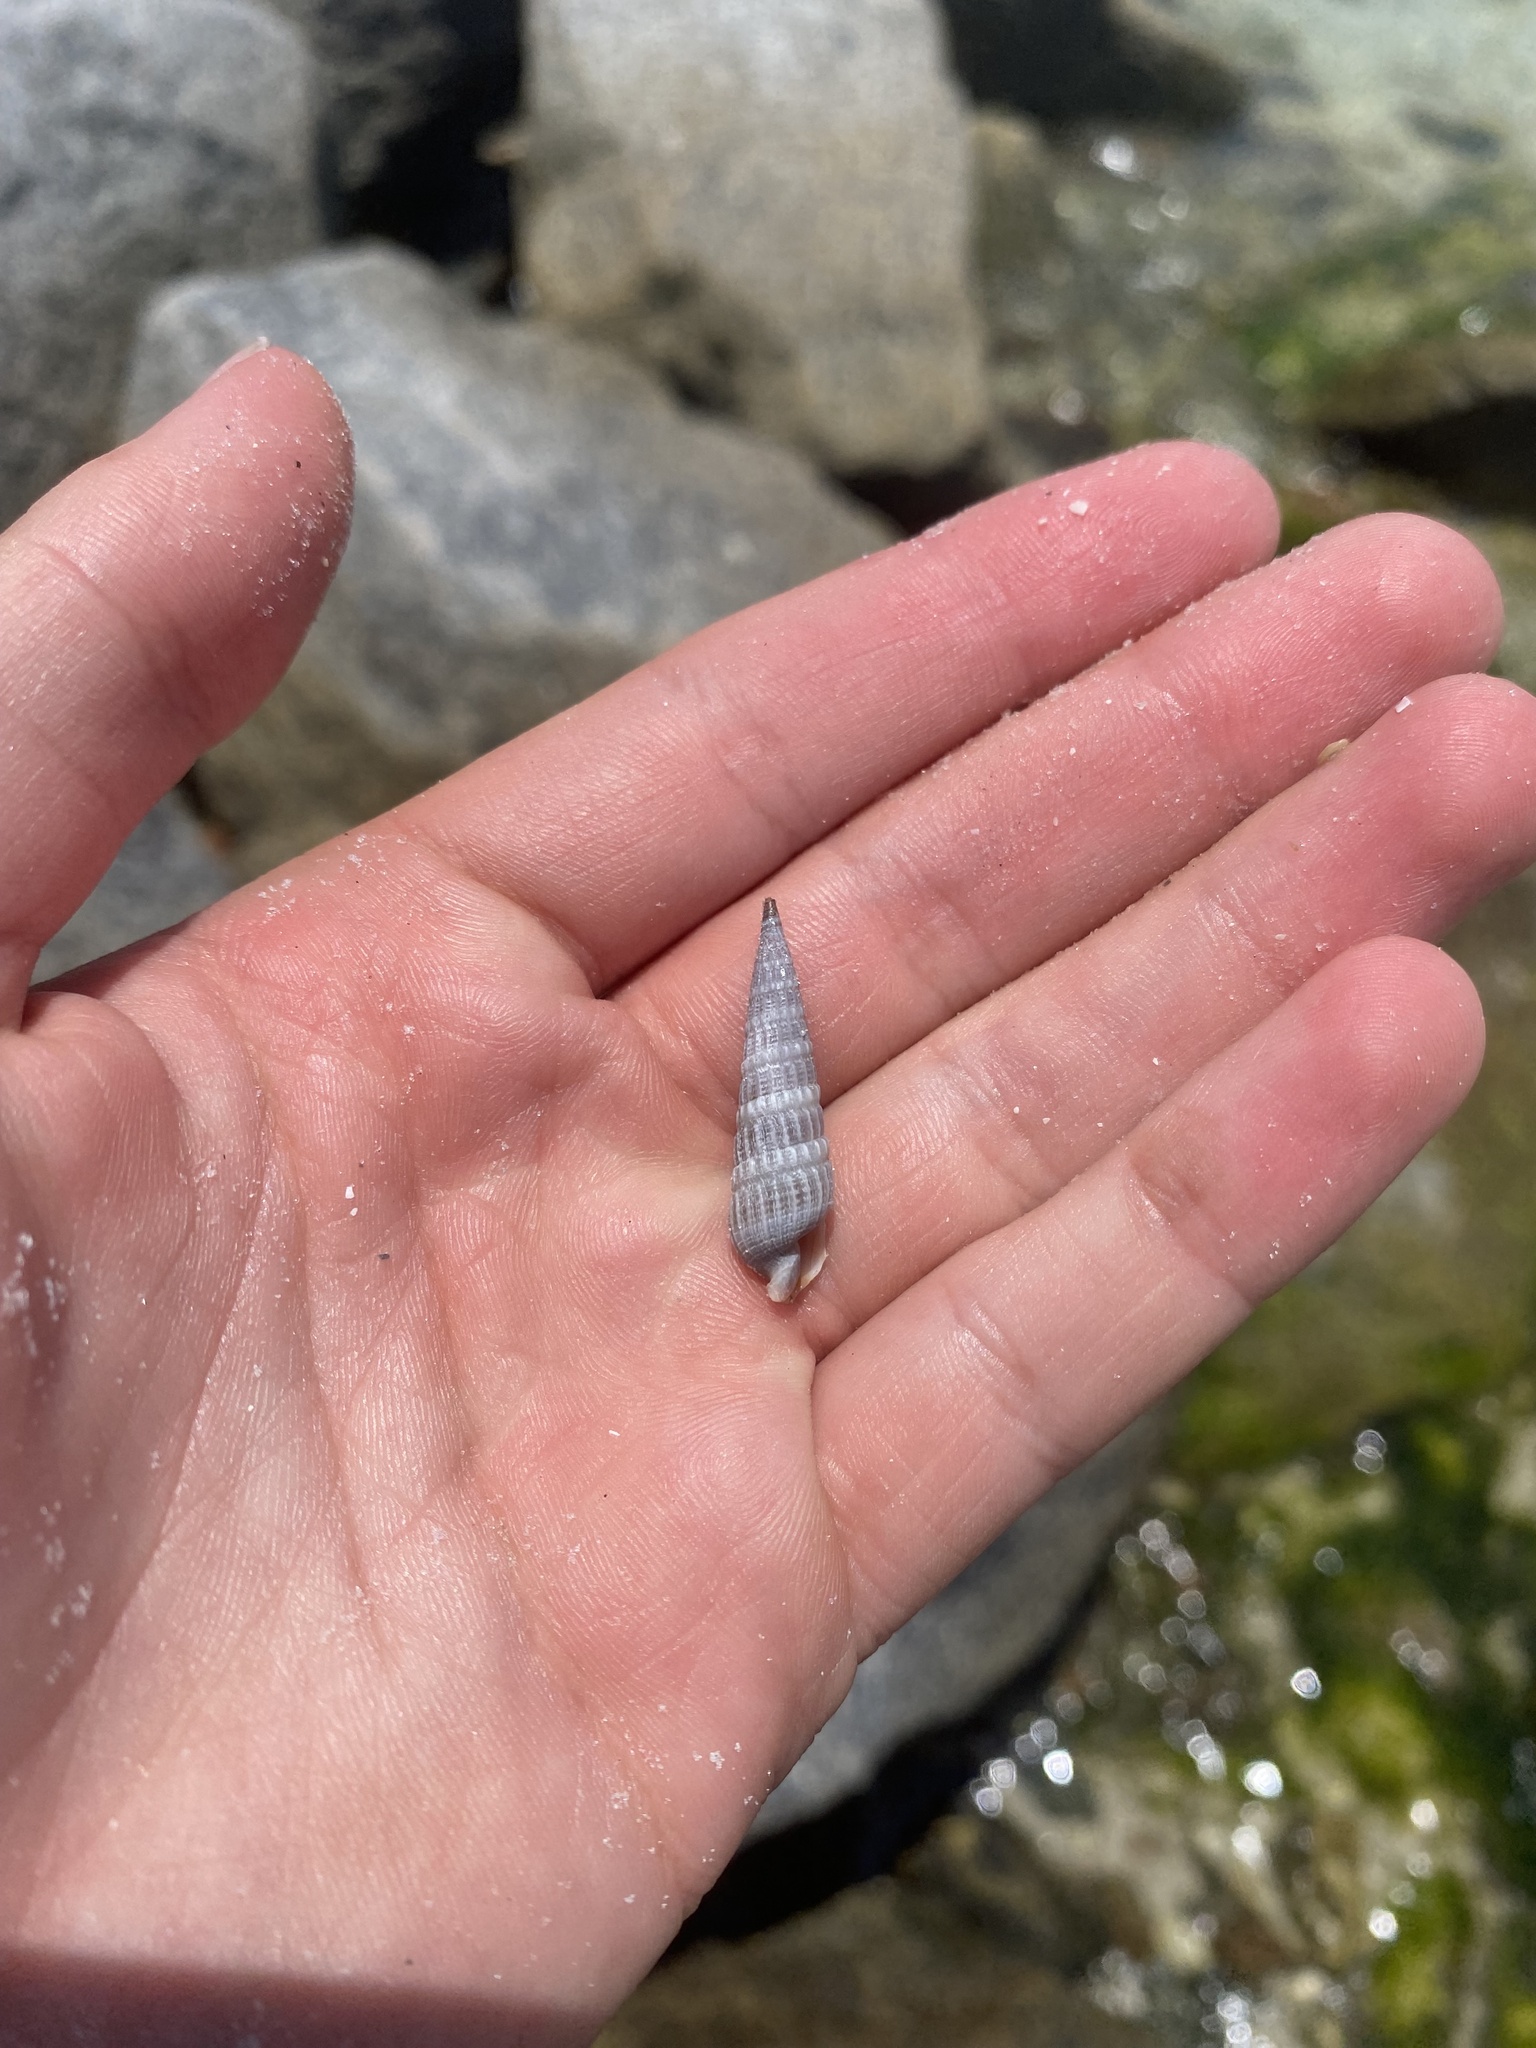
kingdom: Animalia
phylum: Mollusca
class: Gastropoda
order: Neogastropoda
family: Terebridae
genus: Neoterebra
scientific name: Neoterebra dislocata
